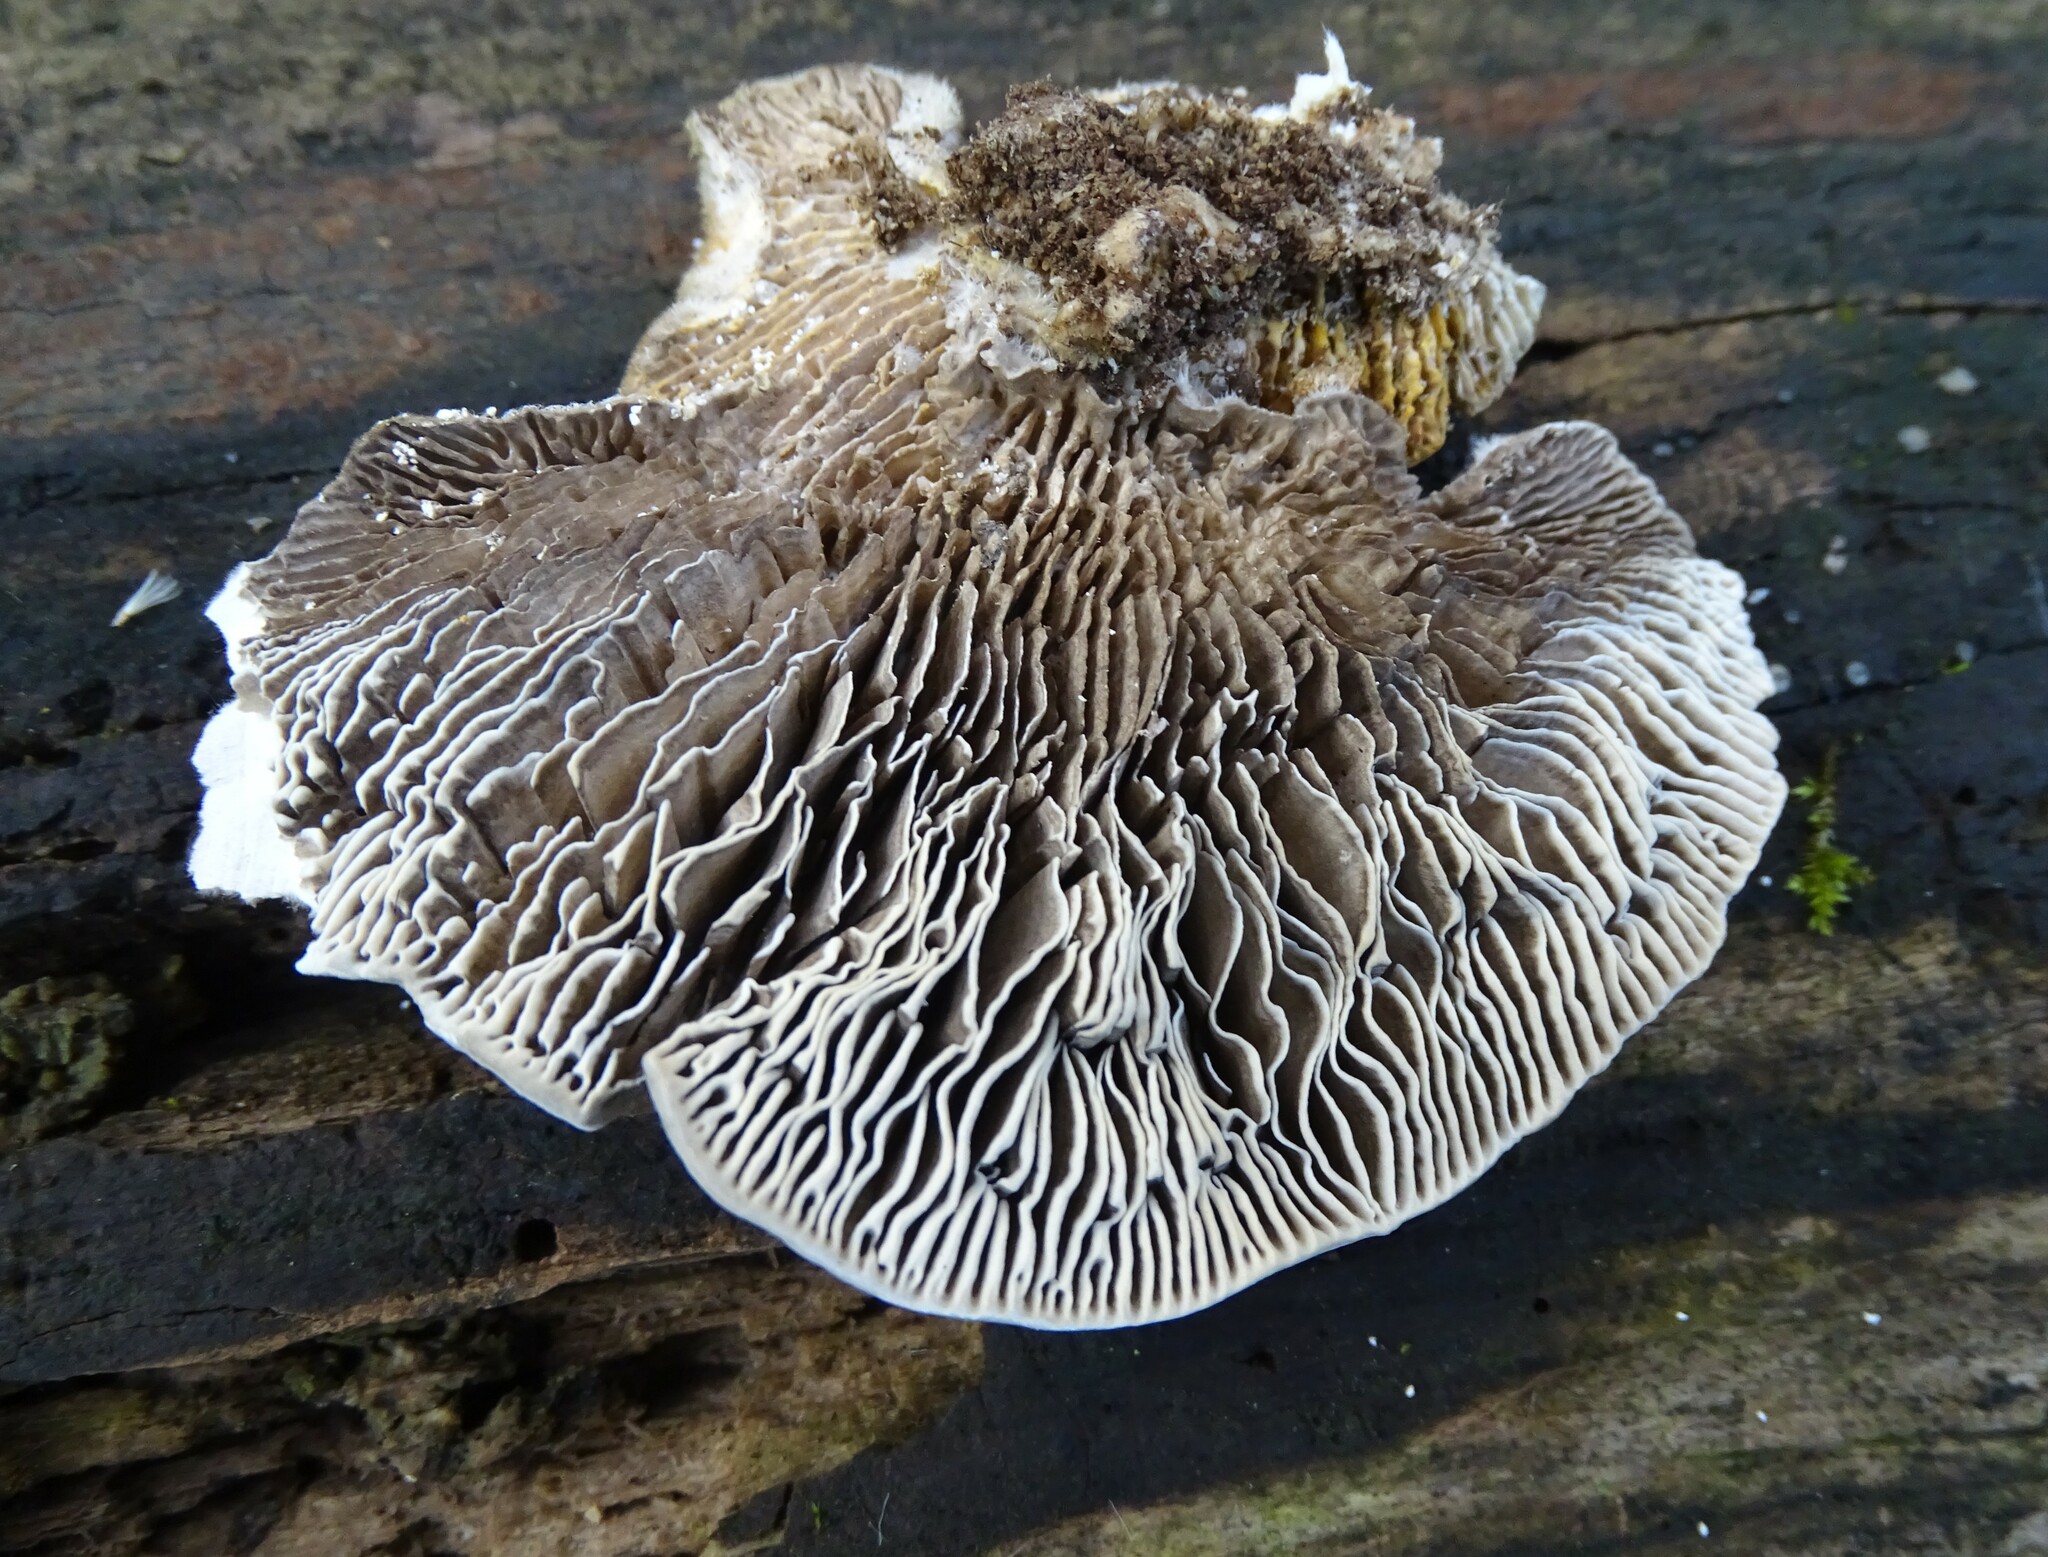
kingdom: Fungi
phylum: Basidiomycota
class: Agaricomycetes
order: Polyporales
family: Polyporaceae
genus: Lenzites
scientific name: Lenzites betulinus
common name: Birch mazegill
